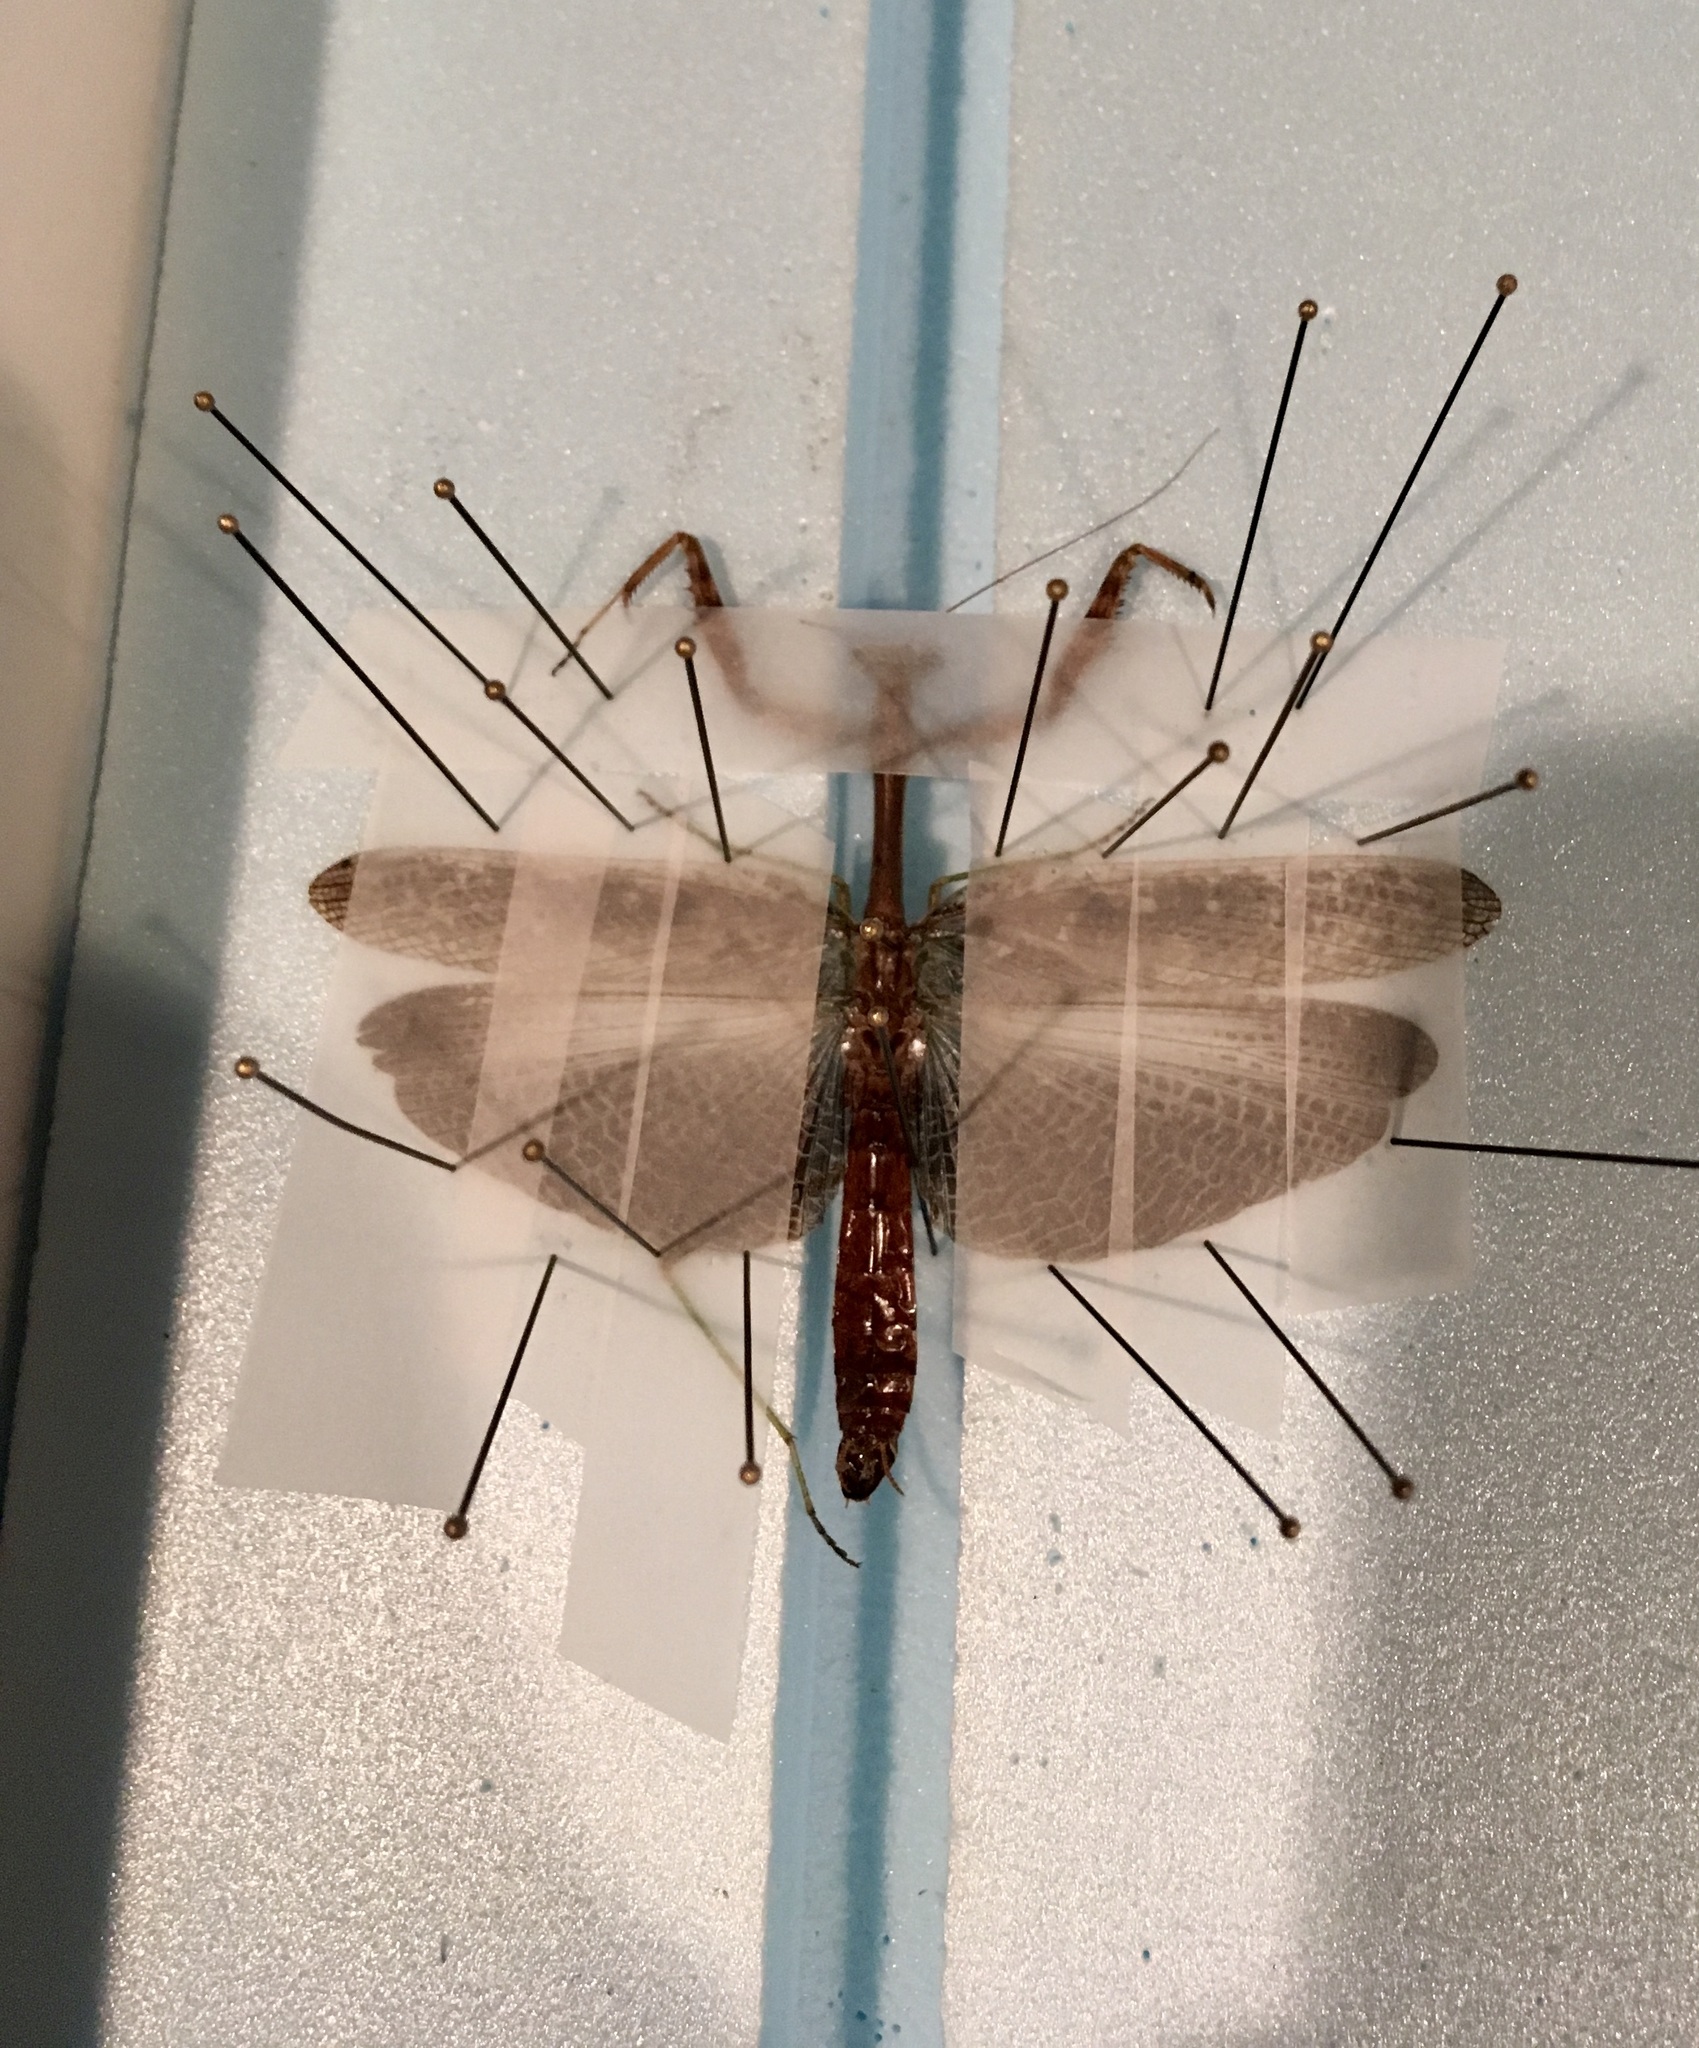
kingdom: Animalia
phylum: Arthropoda
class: Insecta
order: Mantodea
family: Mantidae
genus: Stagmomantis
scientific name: Stagmomantis carolina
